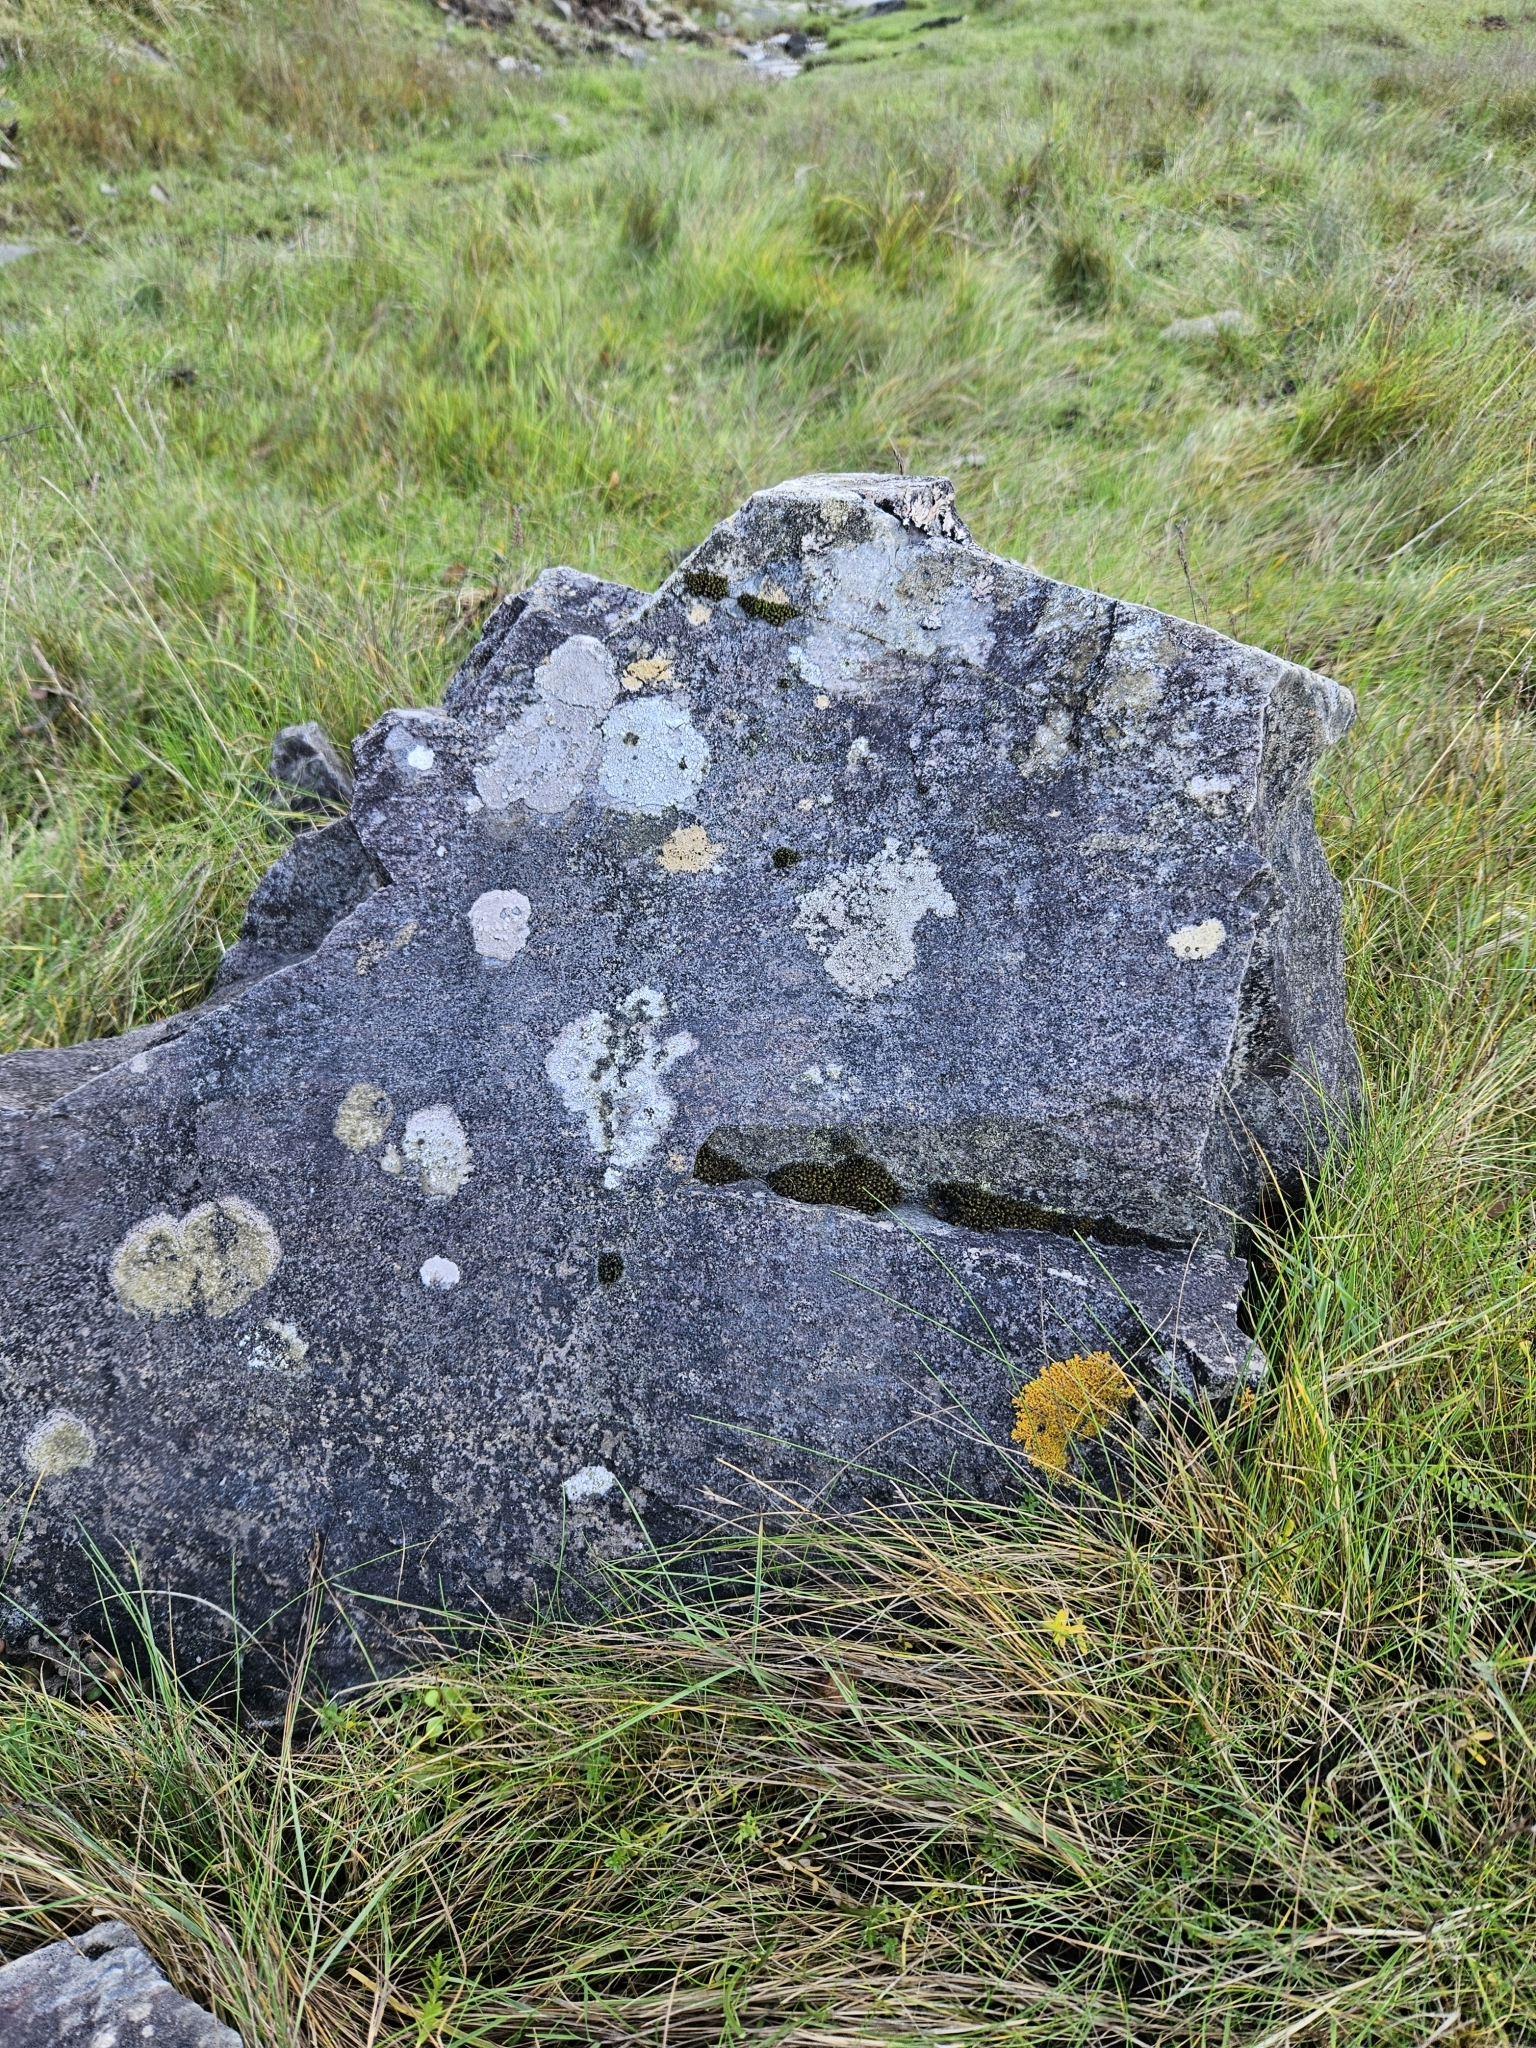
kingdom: Plantae
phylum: Bryophyta
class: Bryopsida
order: Orthotrichales
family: Orthotrichaceae
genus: Plenogemma
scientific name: Plenogemma phyllantha
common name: Frizzled pincushion
